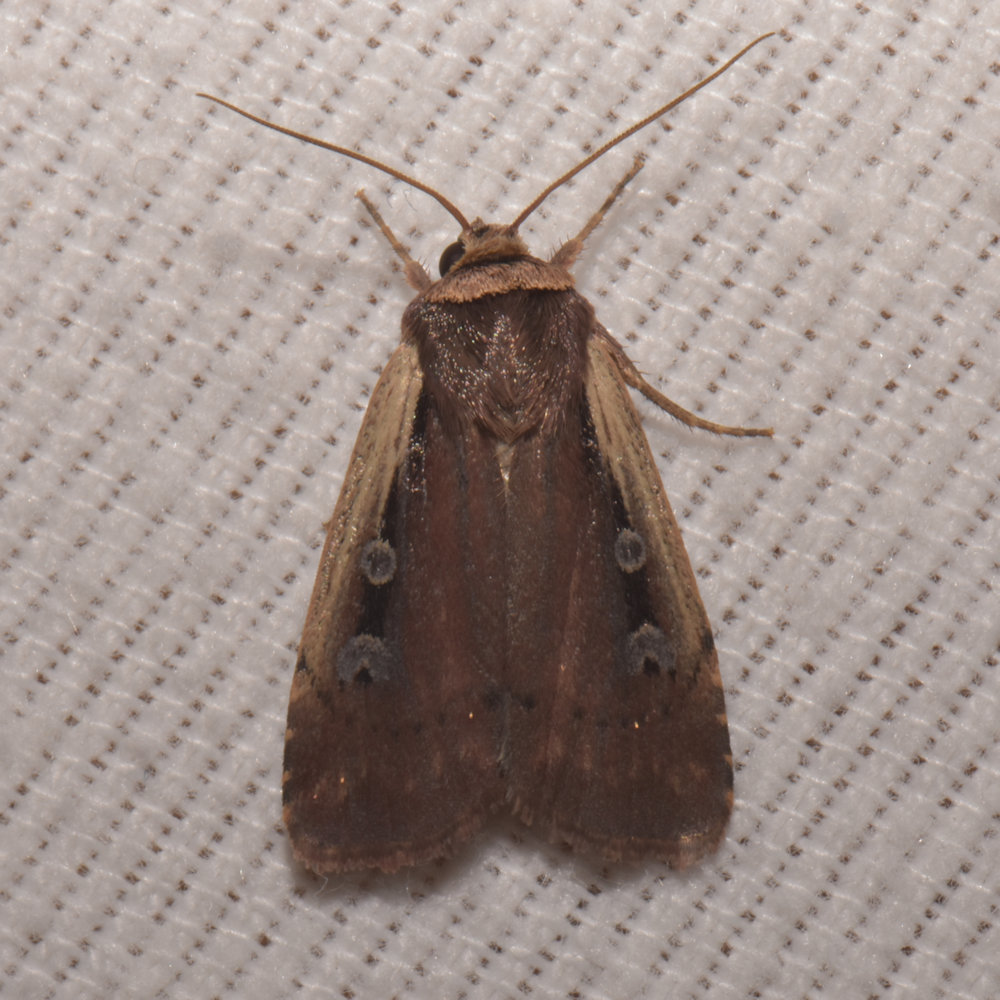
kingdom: Animalia
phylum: Arthropoda
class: Insecta
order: Lepidoptera
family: Noctuidae
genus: Ochropleura
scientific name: Ochropleura implecta
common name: Flame-shouldered dart
